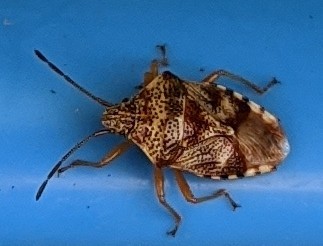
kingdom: Animalia
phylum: Arthropoda
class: Insecta
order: Hemiptera
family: Acanthosomatidae
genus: Elasmucha
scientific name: Elasmucha lateralis
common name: Shield bug
